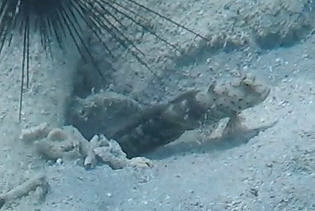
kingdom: Animalia
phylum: Chordata
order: Perciformes
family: Gobiidae
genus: Cryptocentrus
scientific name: Cryptocentrus caeruleopunctatus
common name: Blue-and-red-spotted goby
